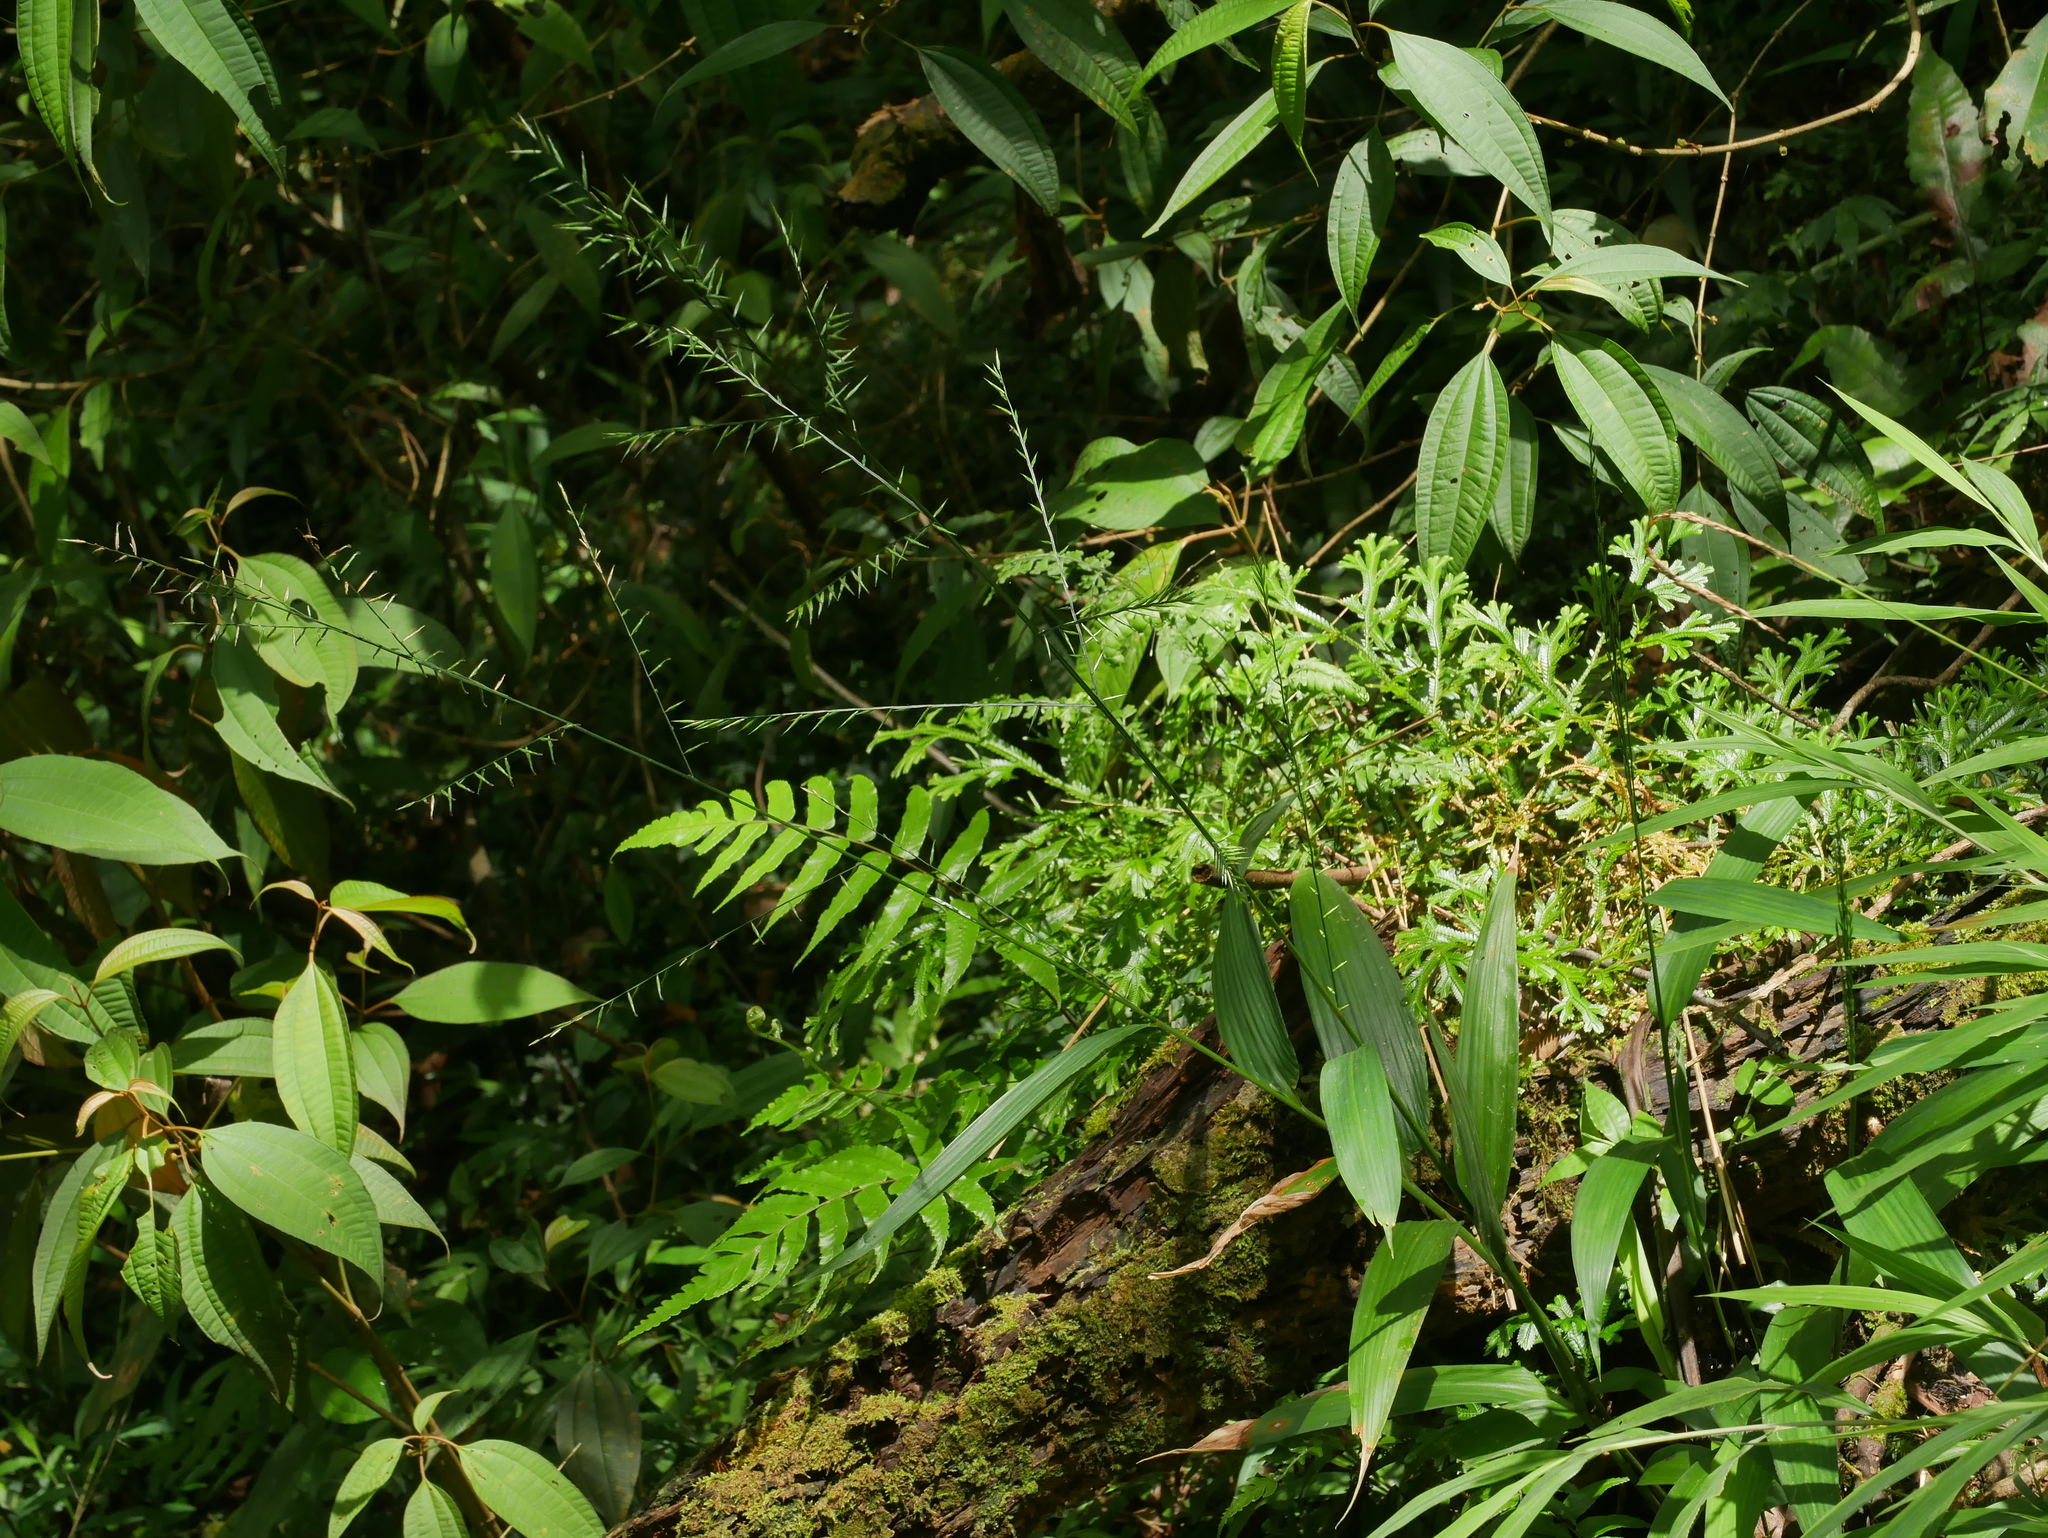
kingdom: Plantae
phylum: Tracheophyta
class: Liliopsida
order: Poales
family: Poaceae
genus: Lophatherum
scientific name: Lophatherum gracile
